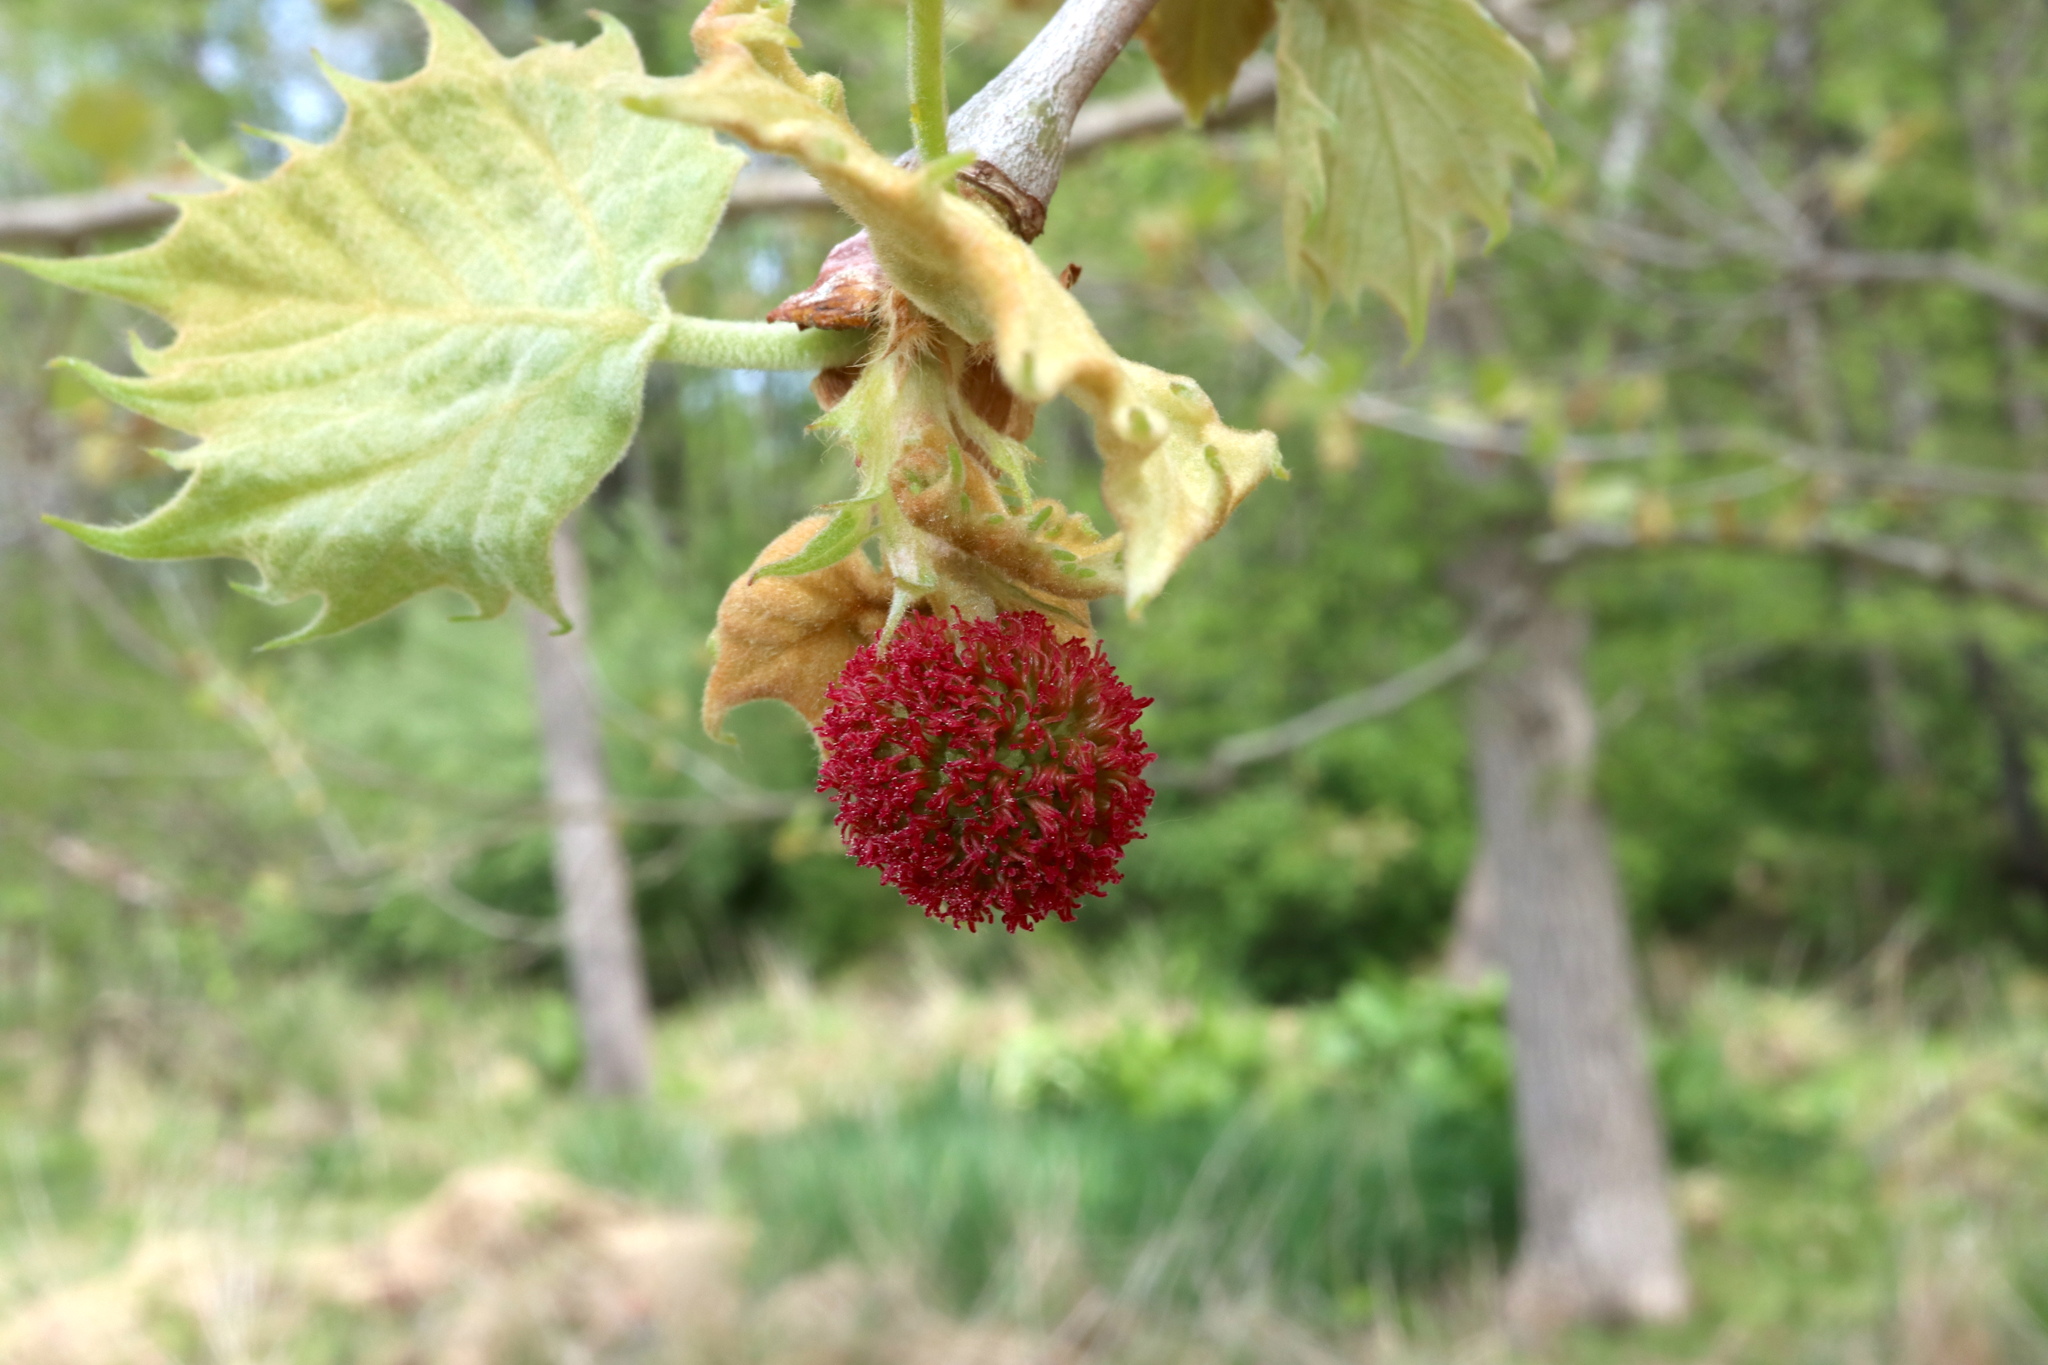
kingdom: Plantae
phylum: Tracheophyta
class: Magnoliopsida
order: Proteales
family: Platanaceae
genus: Platanus
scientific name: Platanus occidentalis
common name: American sycamore
